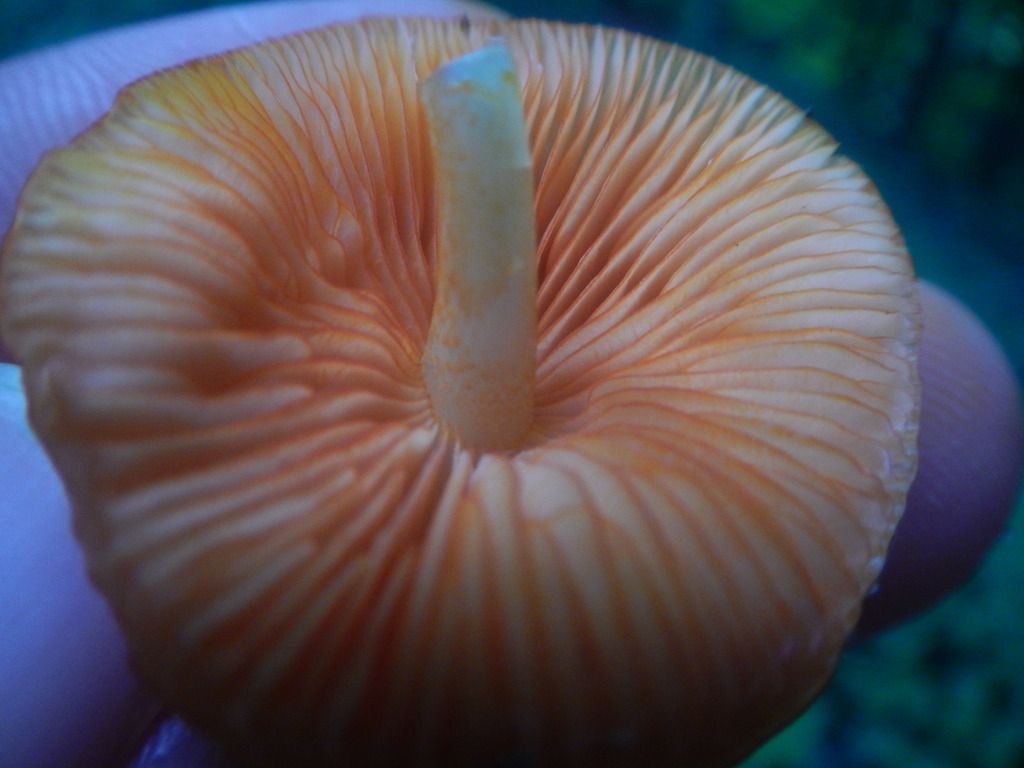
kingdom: Fungi
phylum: Basidiomycota
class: Agaricomycetes
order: Agaricales
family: Mycenaceae
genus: Mycena
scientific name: Mycena leaiana
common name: Orange mycena
